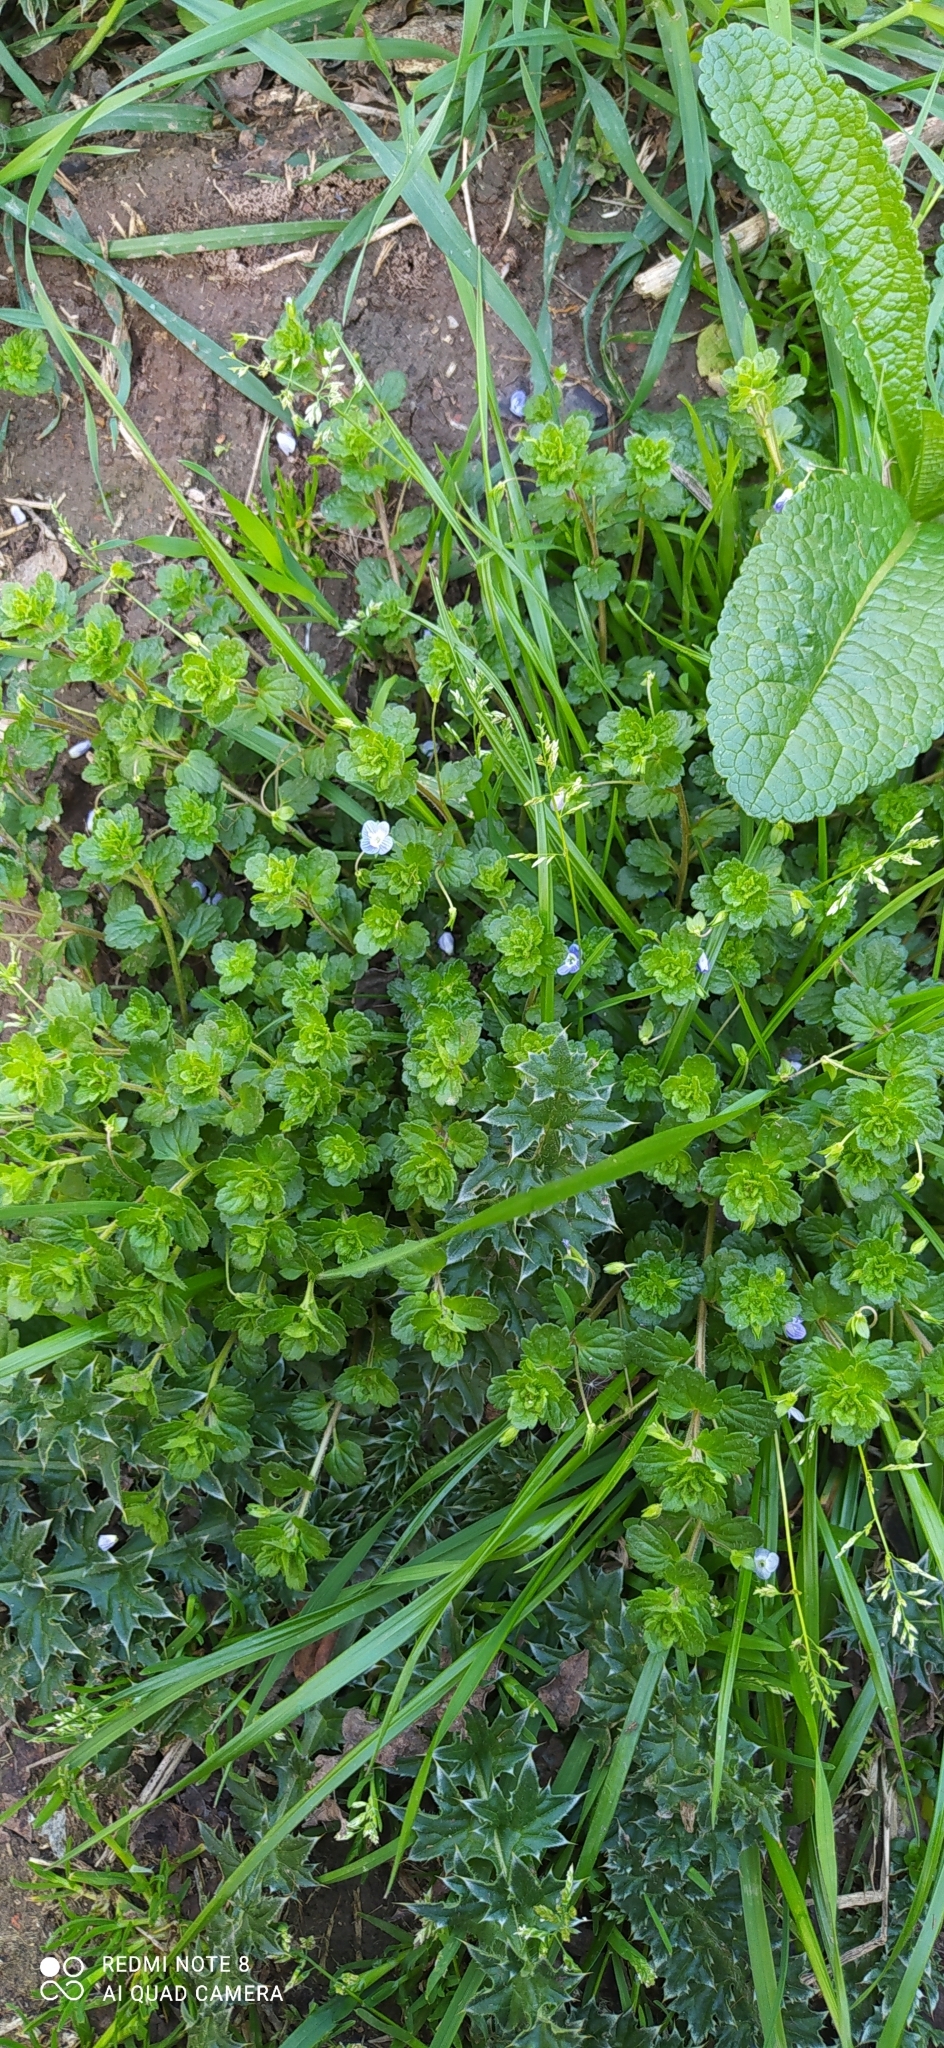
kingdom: Plantae
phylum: Tracheophyta
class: Magnoliopsida
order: Lamiales
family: Plantaginaceae
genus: Veronica
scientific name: Veronica persica
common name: Common field-speedwell
